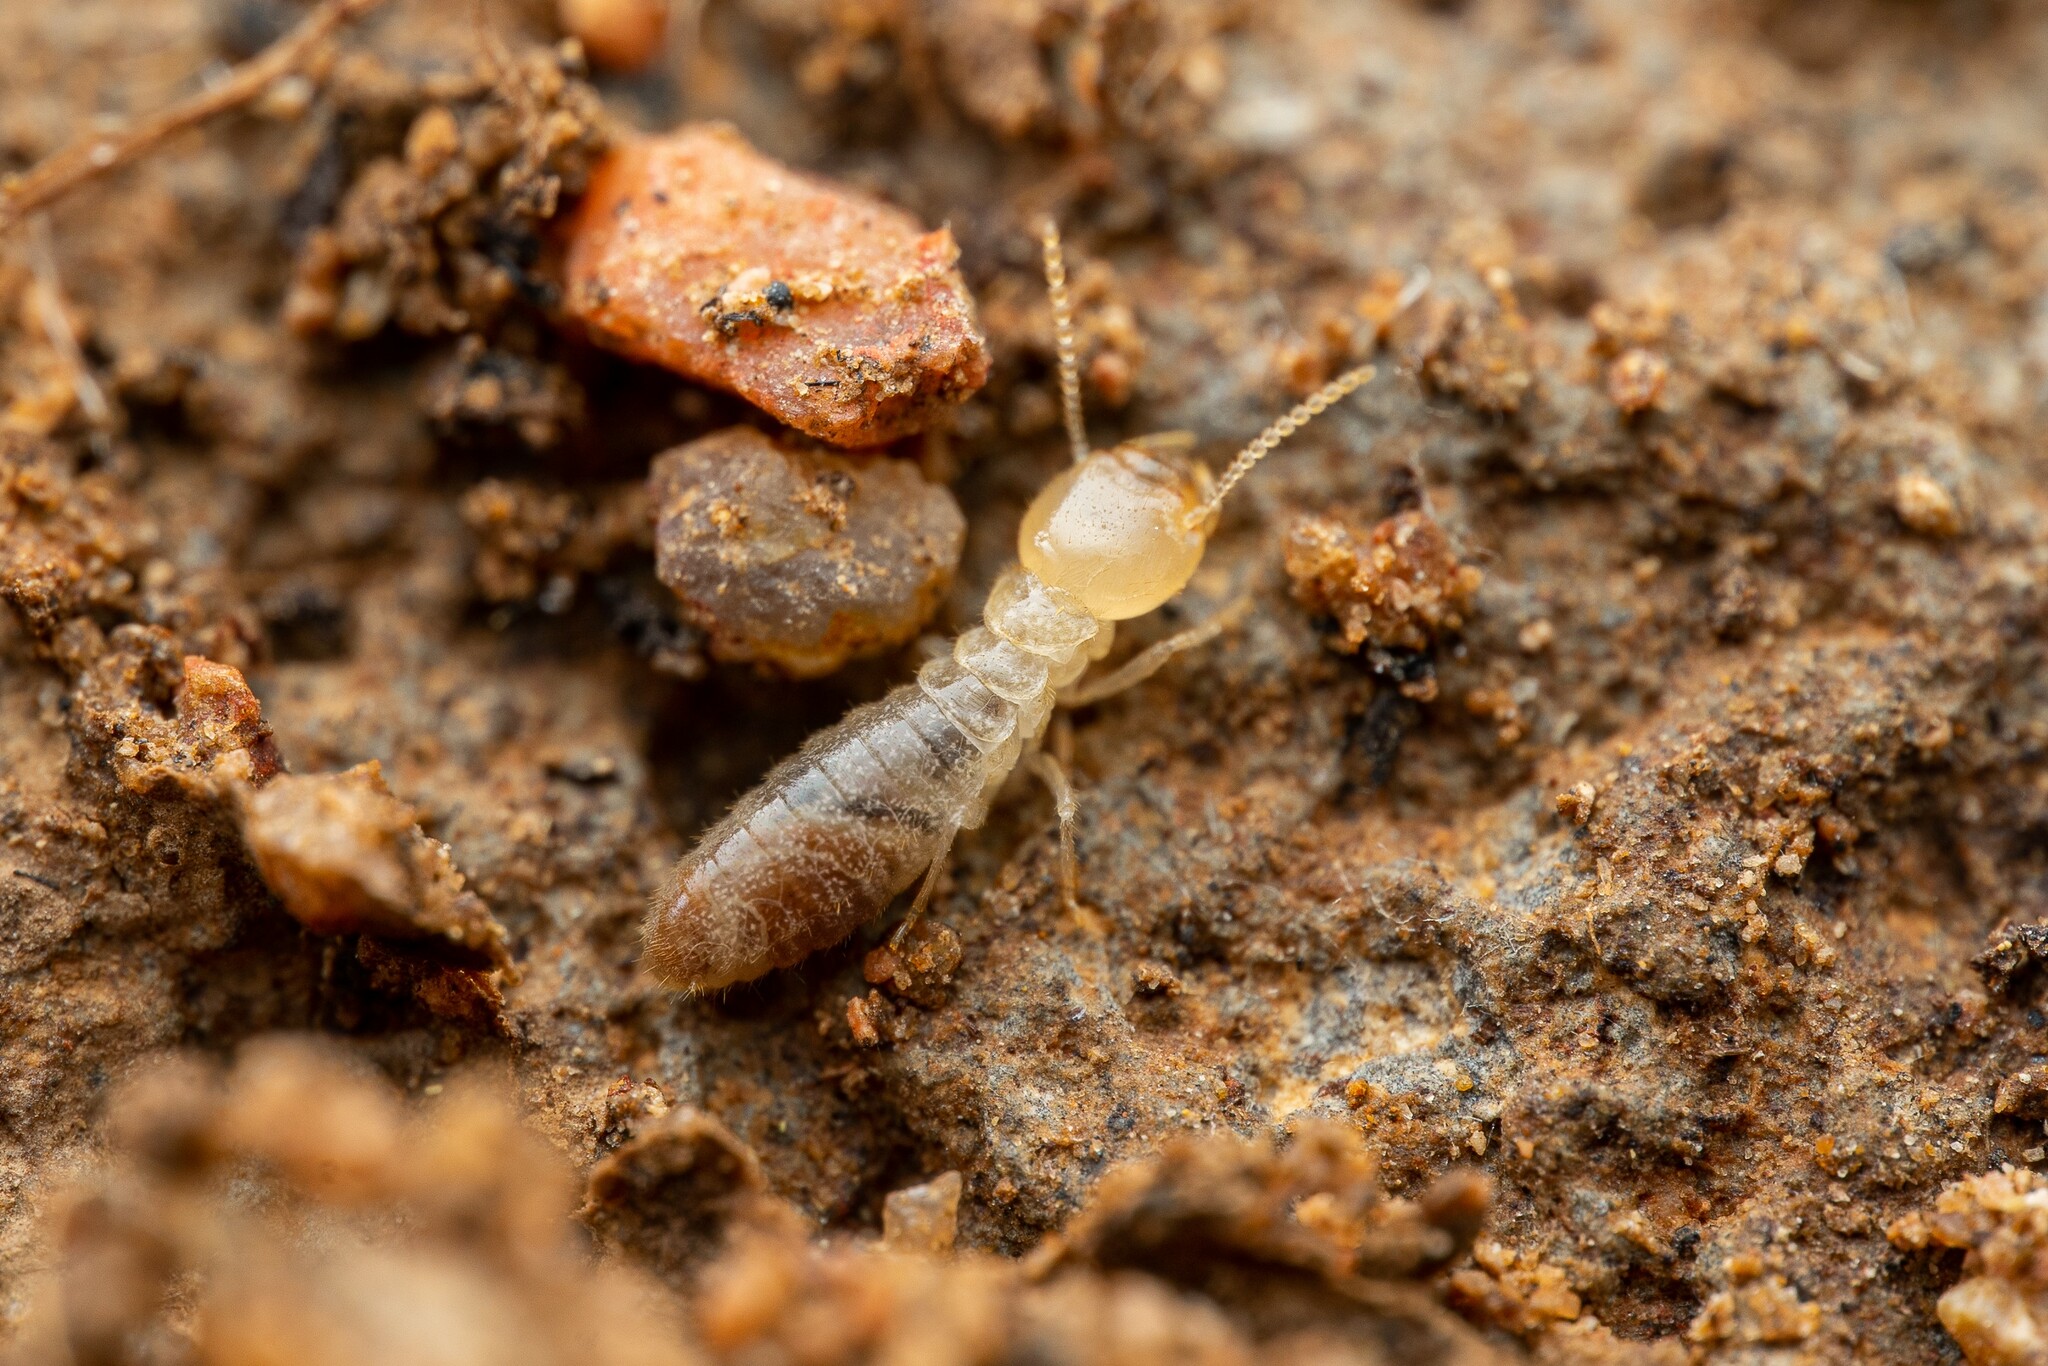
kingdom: Animalia
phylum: Arthropoda
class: Insecta
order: Blattodea
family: Rhinotermitidae
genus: Heterotermes
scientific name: Heterotermes aureus
